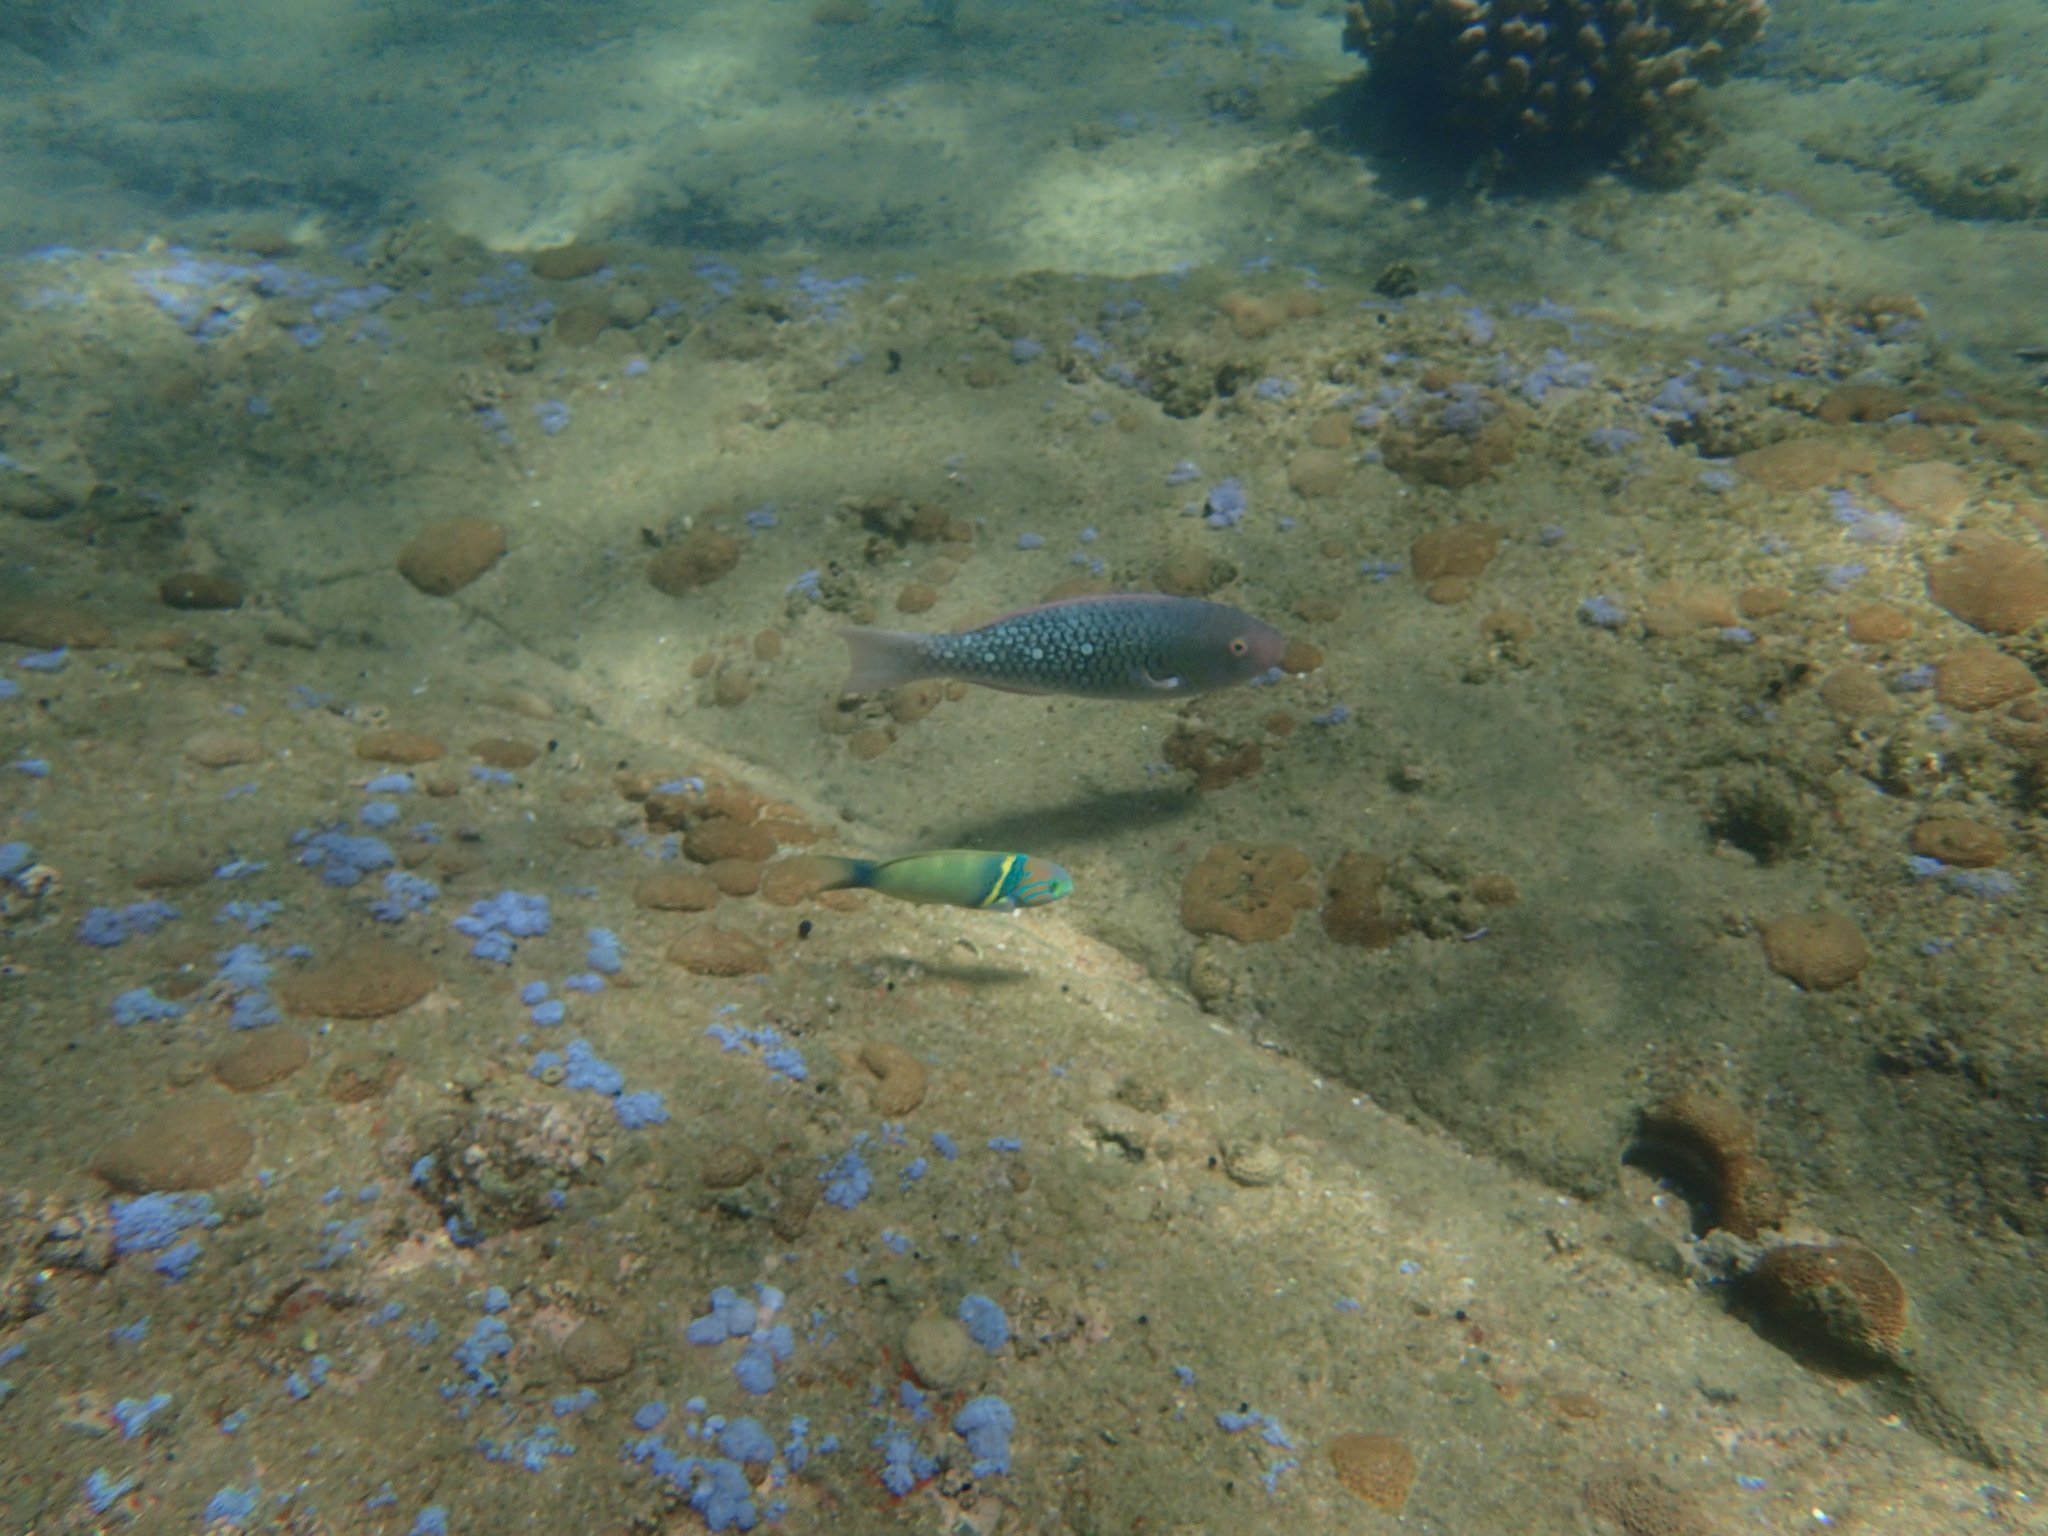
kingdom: Animalia
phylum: Chordata
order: Perciformes
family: Labridae
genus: Thalassoma
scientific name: Thalassoma hebraicum
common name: Goldbar wrasse
